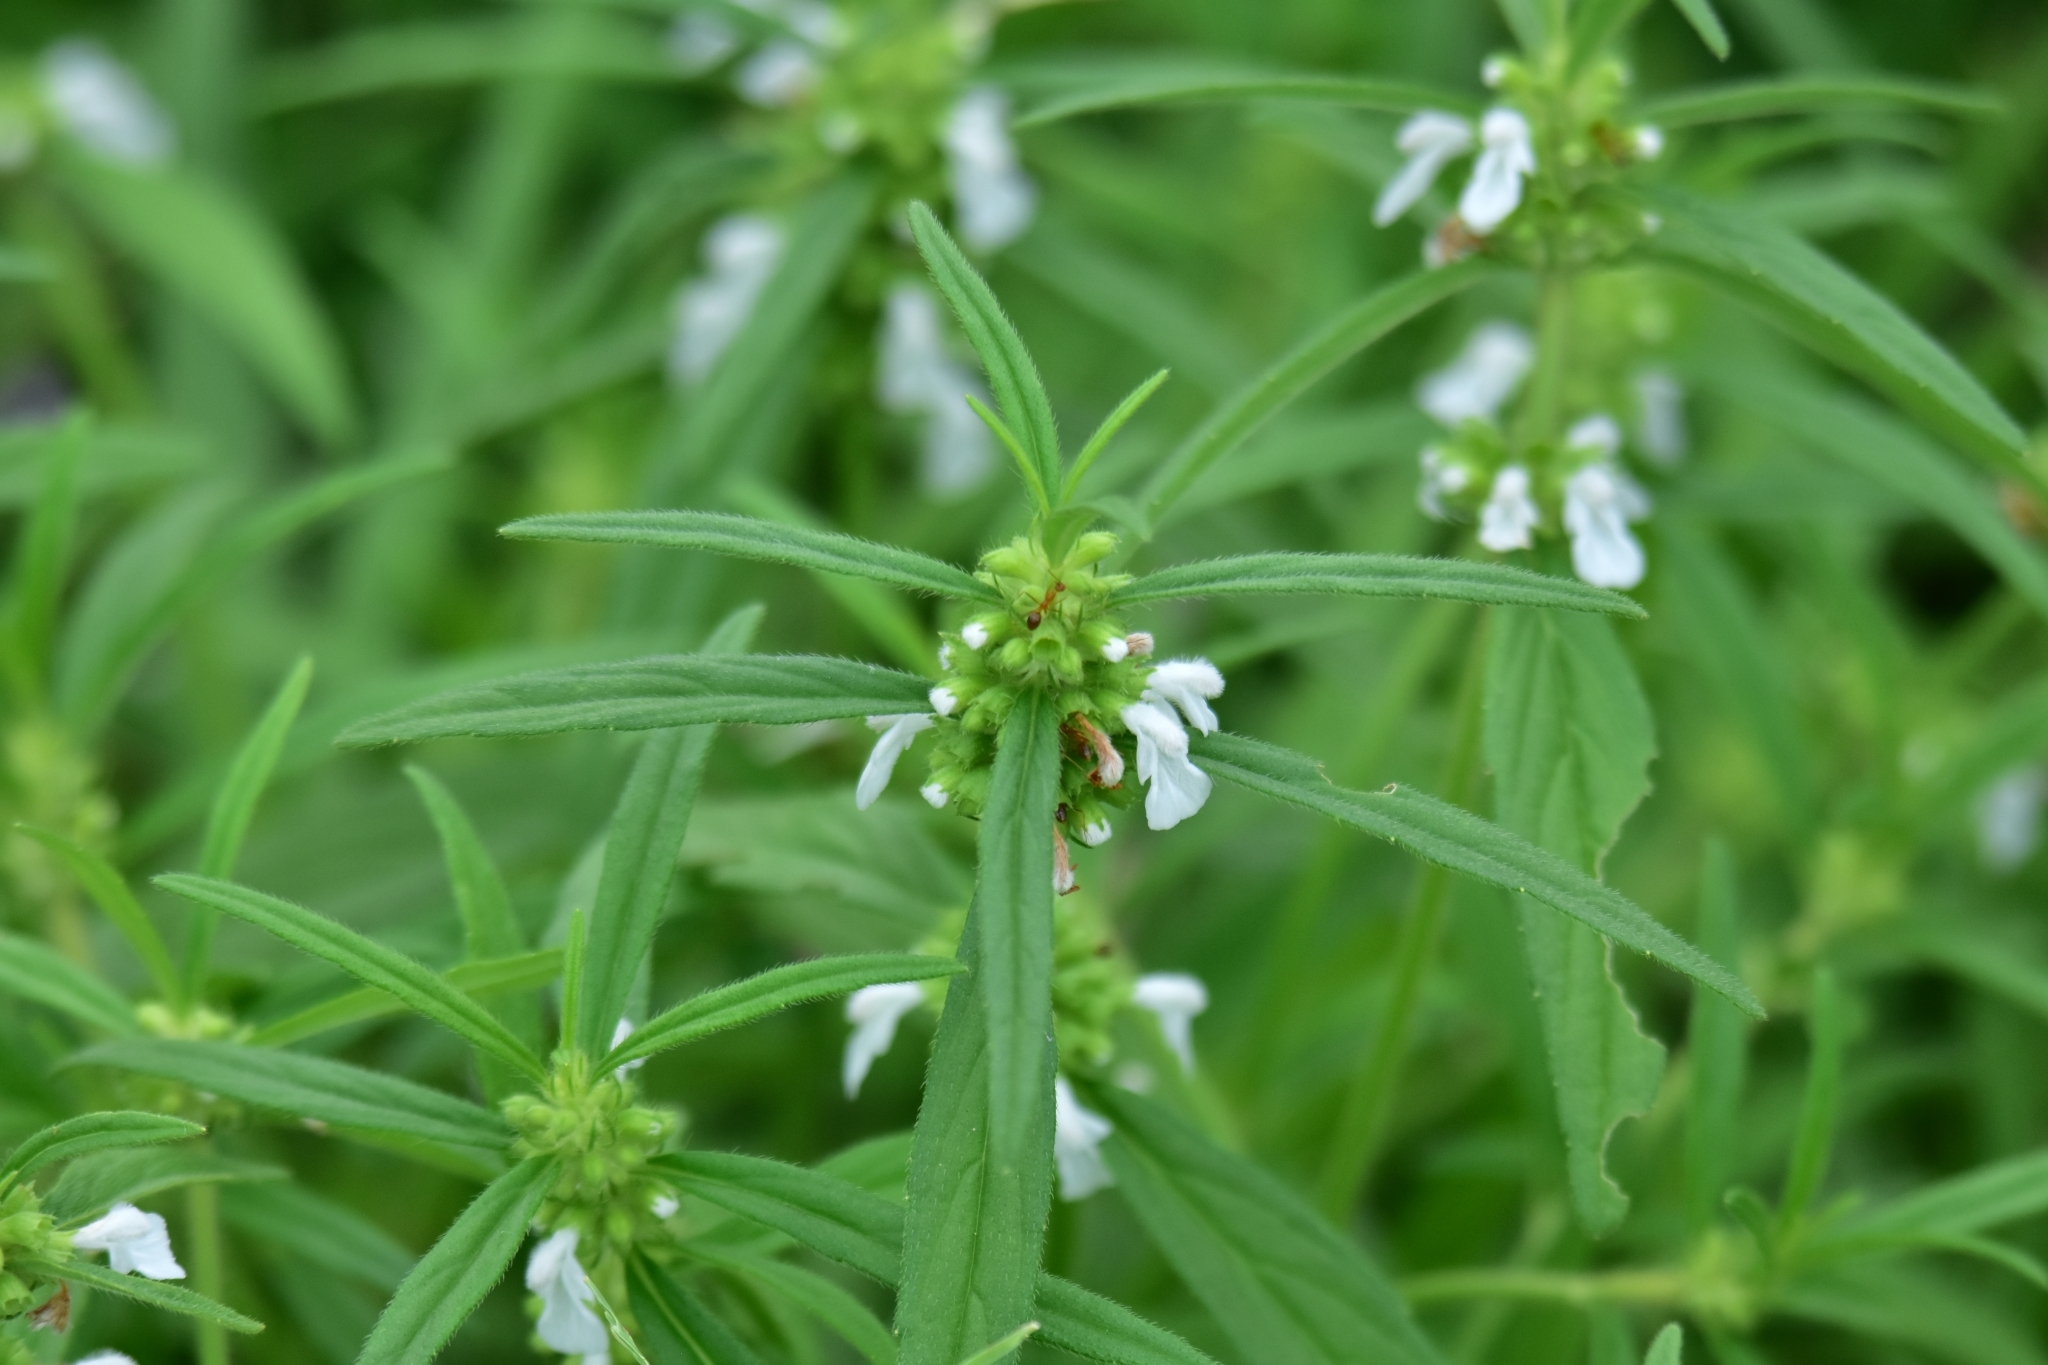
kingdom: Plantae
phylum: Tracheophyta
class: Magnoliopsida
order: Lamiales
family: Lamiaceae
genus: Leucas
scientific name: Leucas aspera
